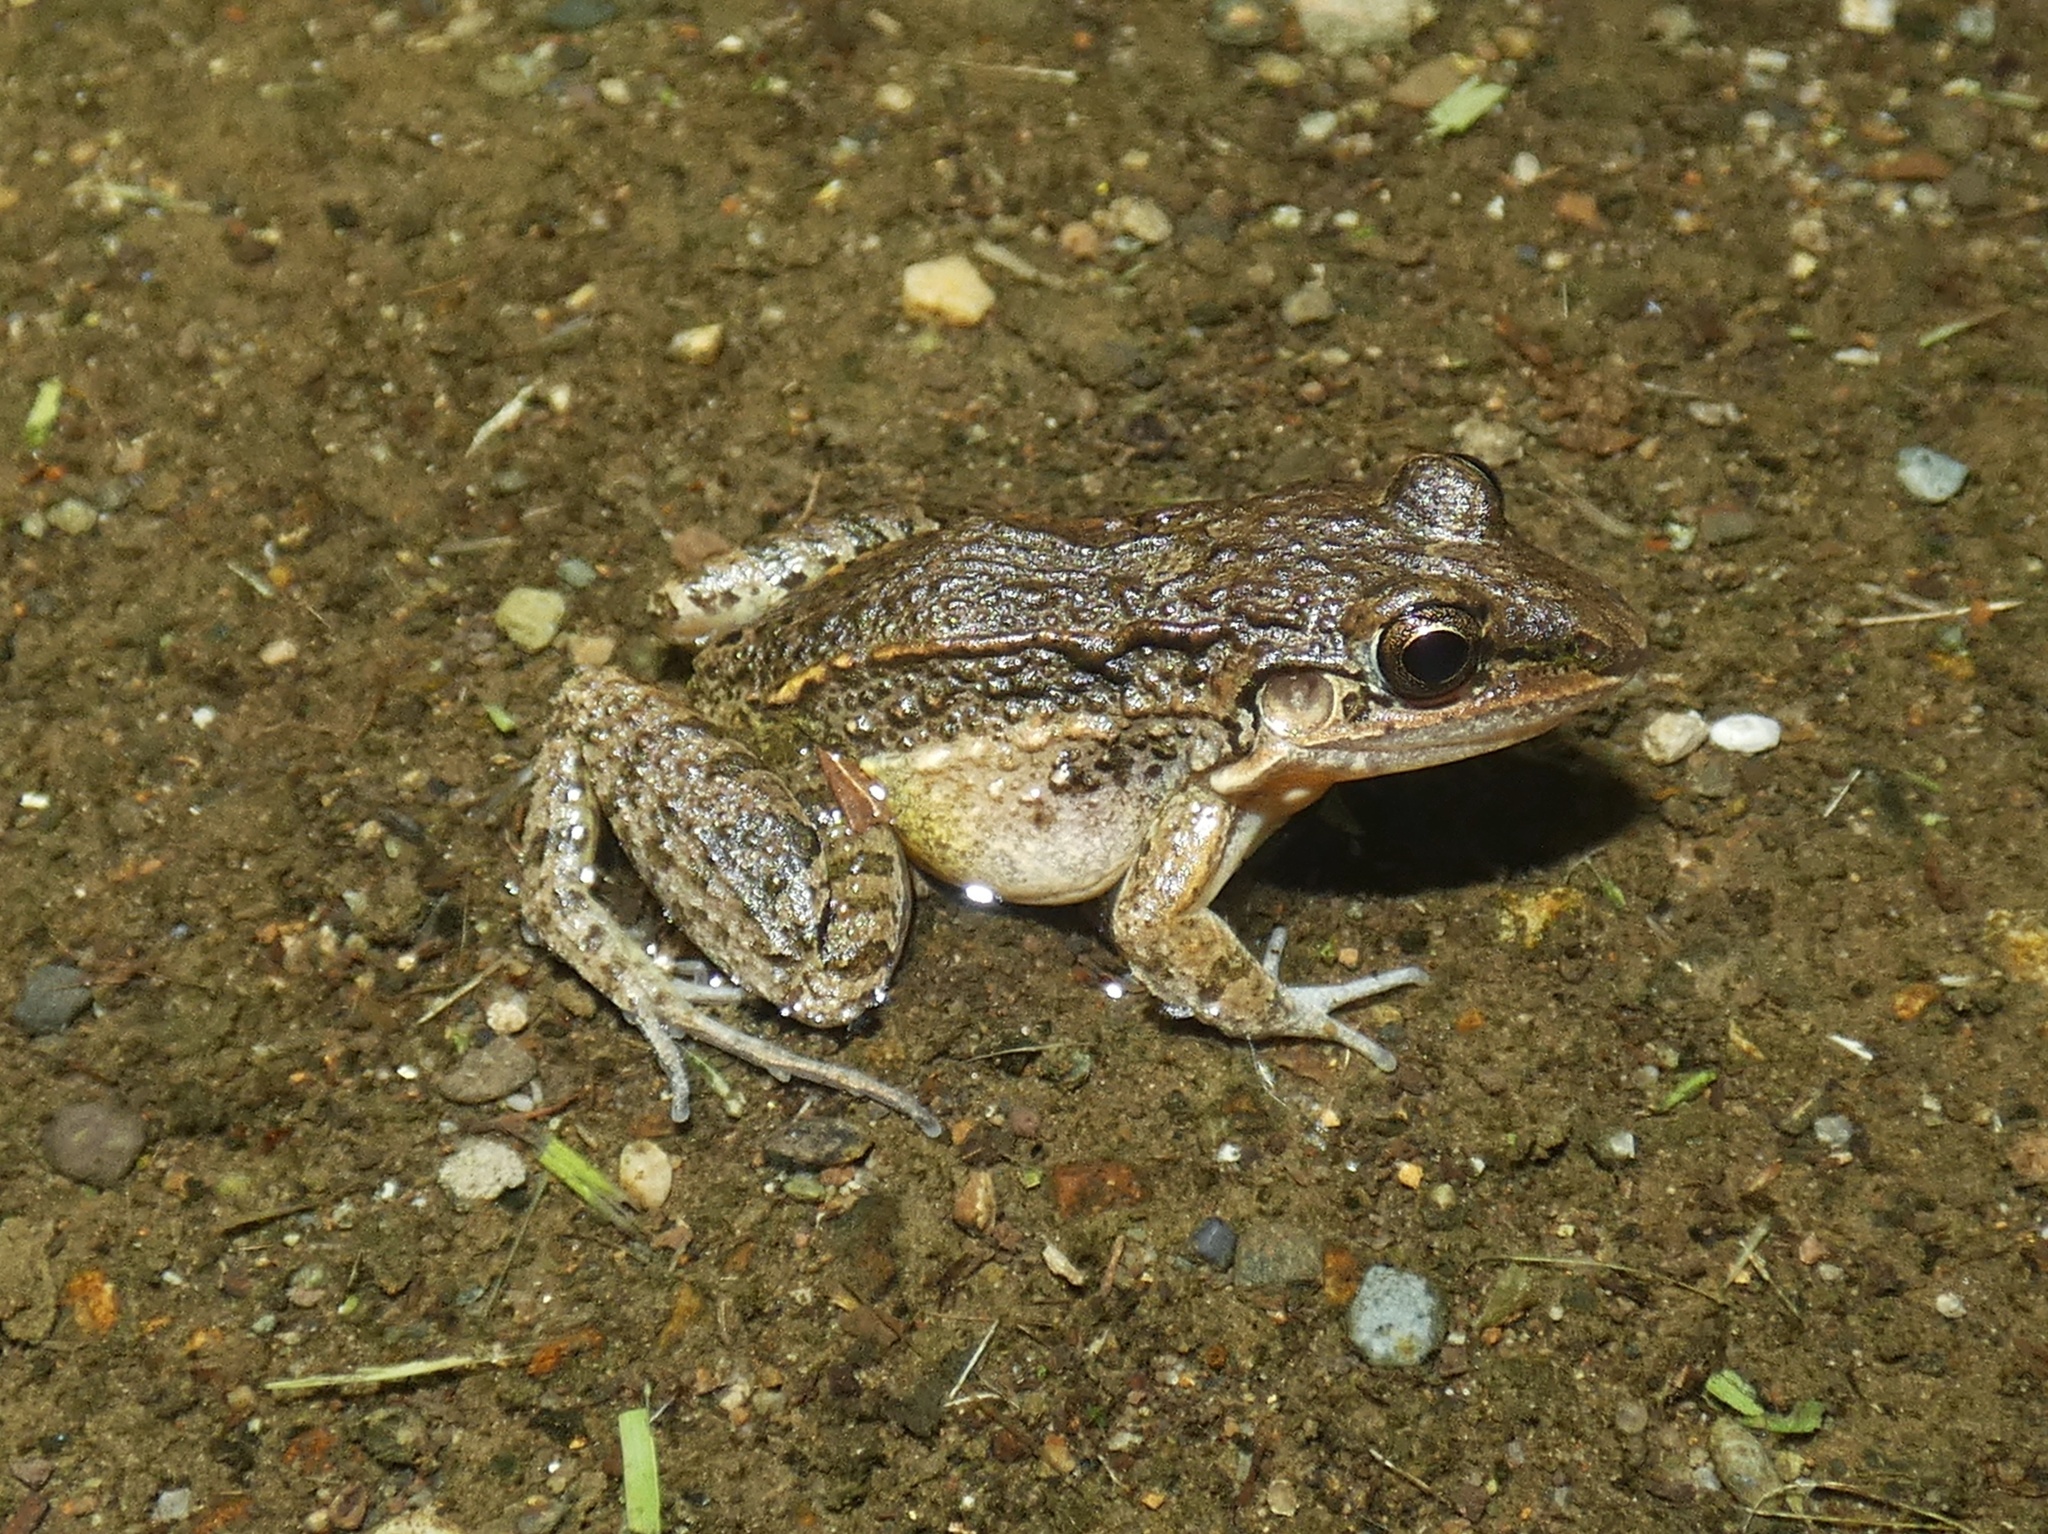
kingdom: Animalia
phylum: Chordata
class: Amphibia
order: Anura
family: Leptodactylidae
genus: Leptodactylus
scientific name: Leptodactylus fragilis
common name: Mexican white-lipped frog
